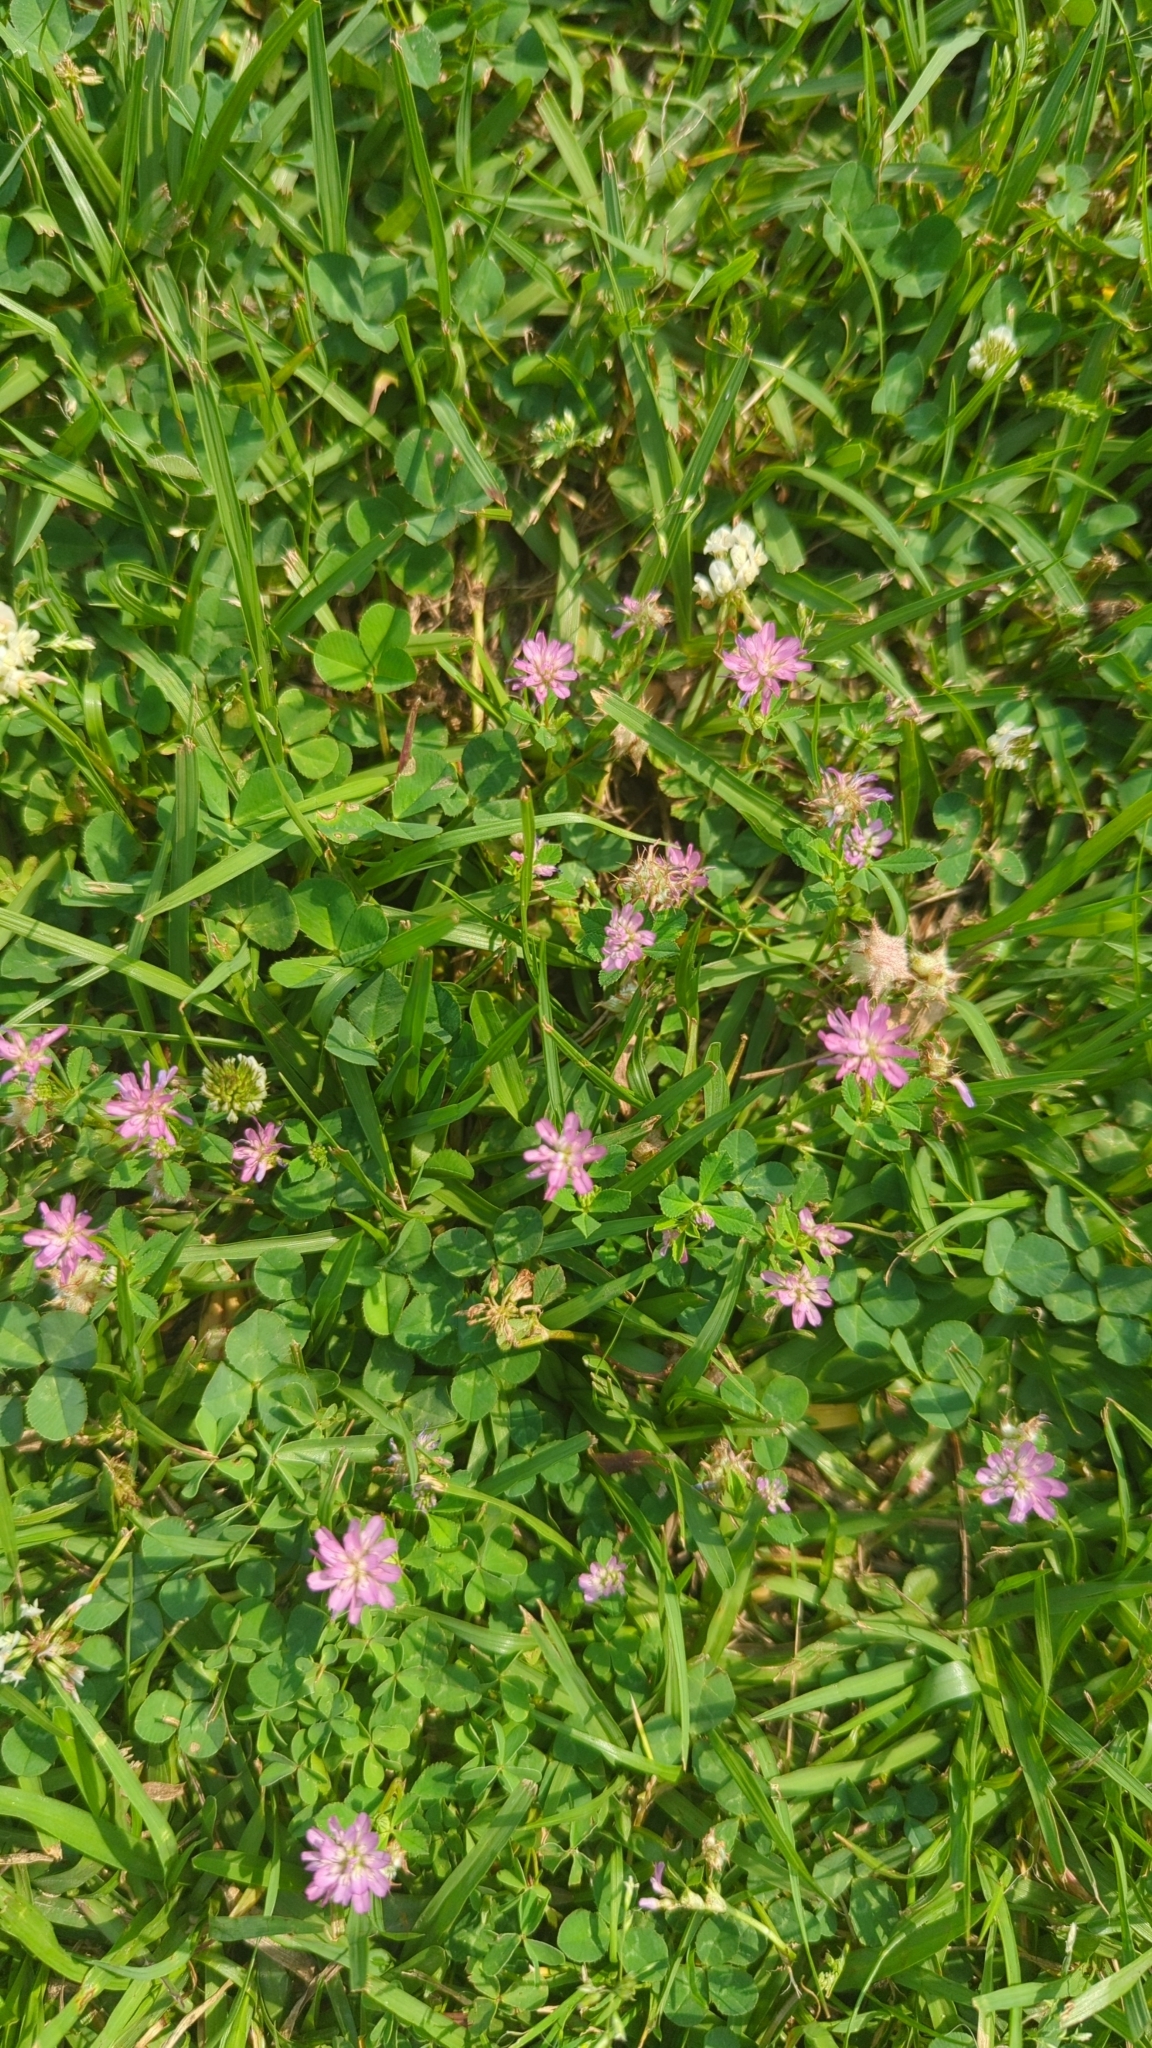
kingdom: Plantae
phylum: Tracheophyta
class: Magnoliopsida
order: Fabales
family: Fabaceae
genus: Trifolium
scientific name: Trifolium resupinatum
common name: Reversed clover
